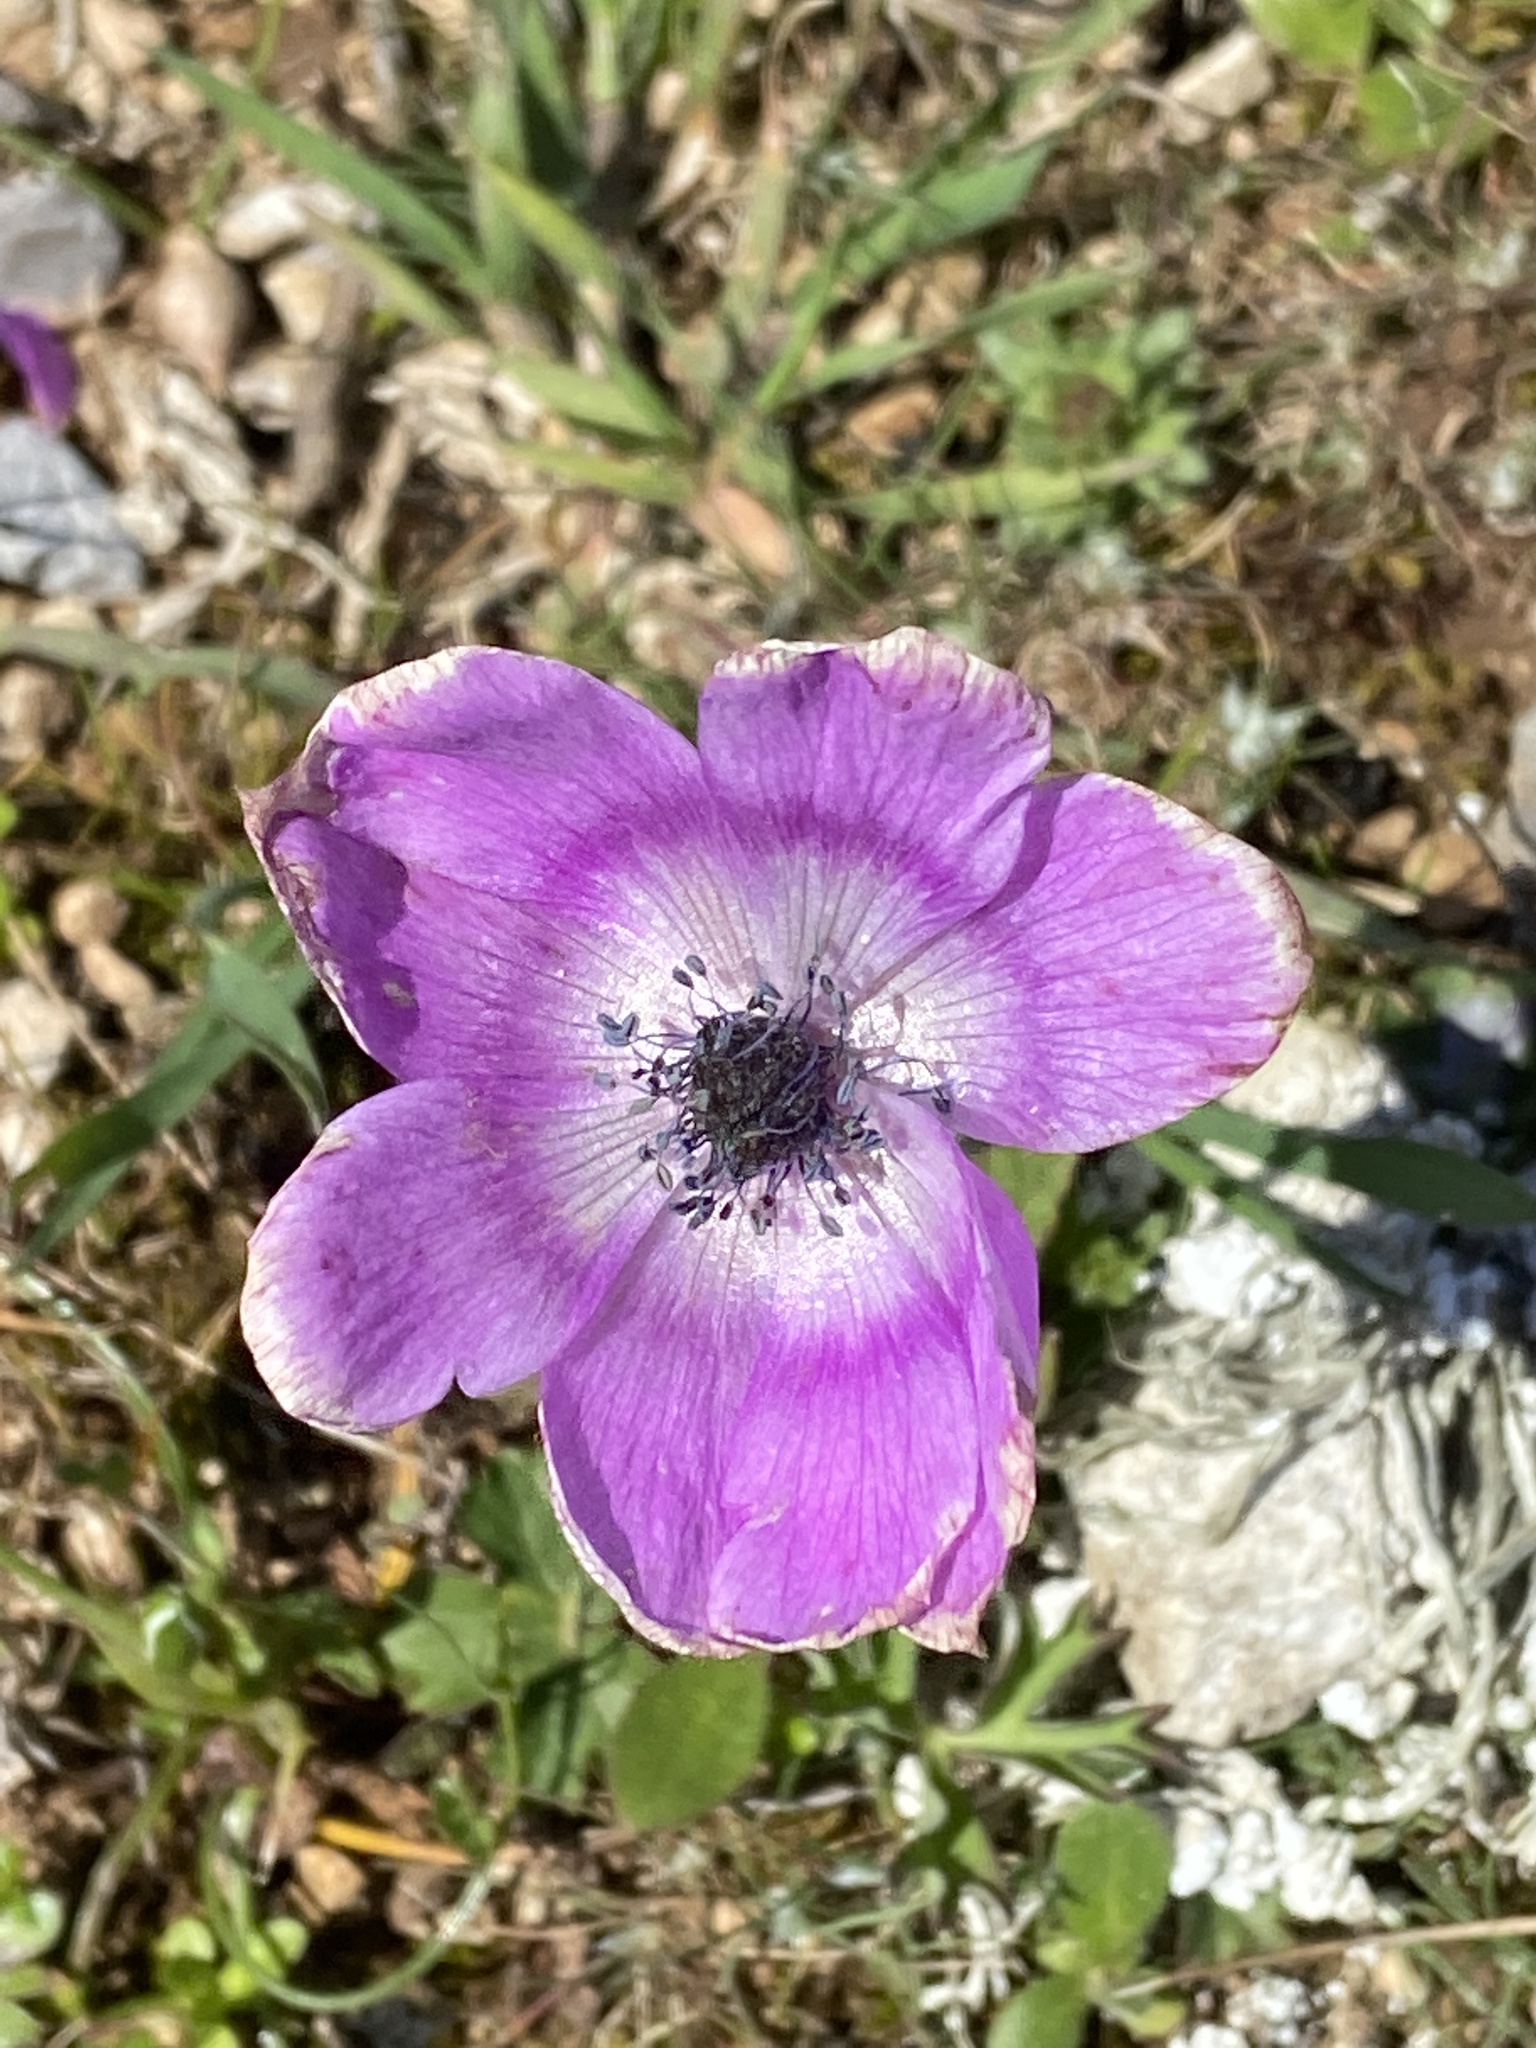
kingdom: Plantae
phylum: Tracheophyta
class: Magnoliopsida
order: Ranunculales
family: Ranunculaceae
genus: Anemone
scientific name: Anemone pavonina
